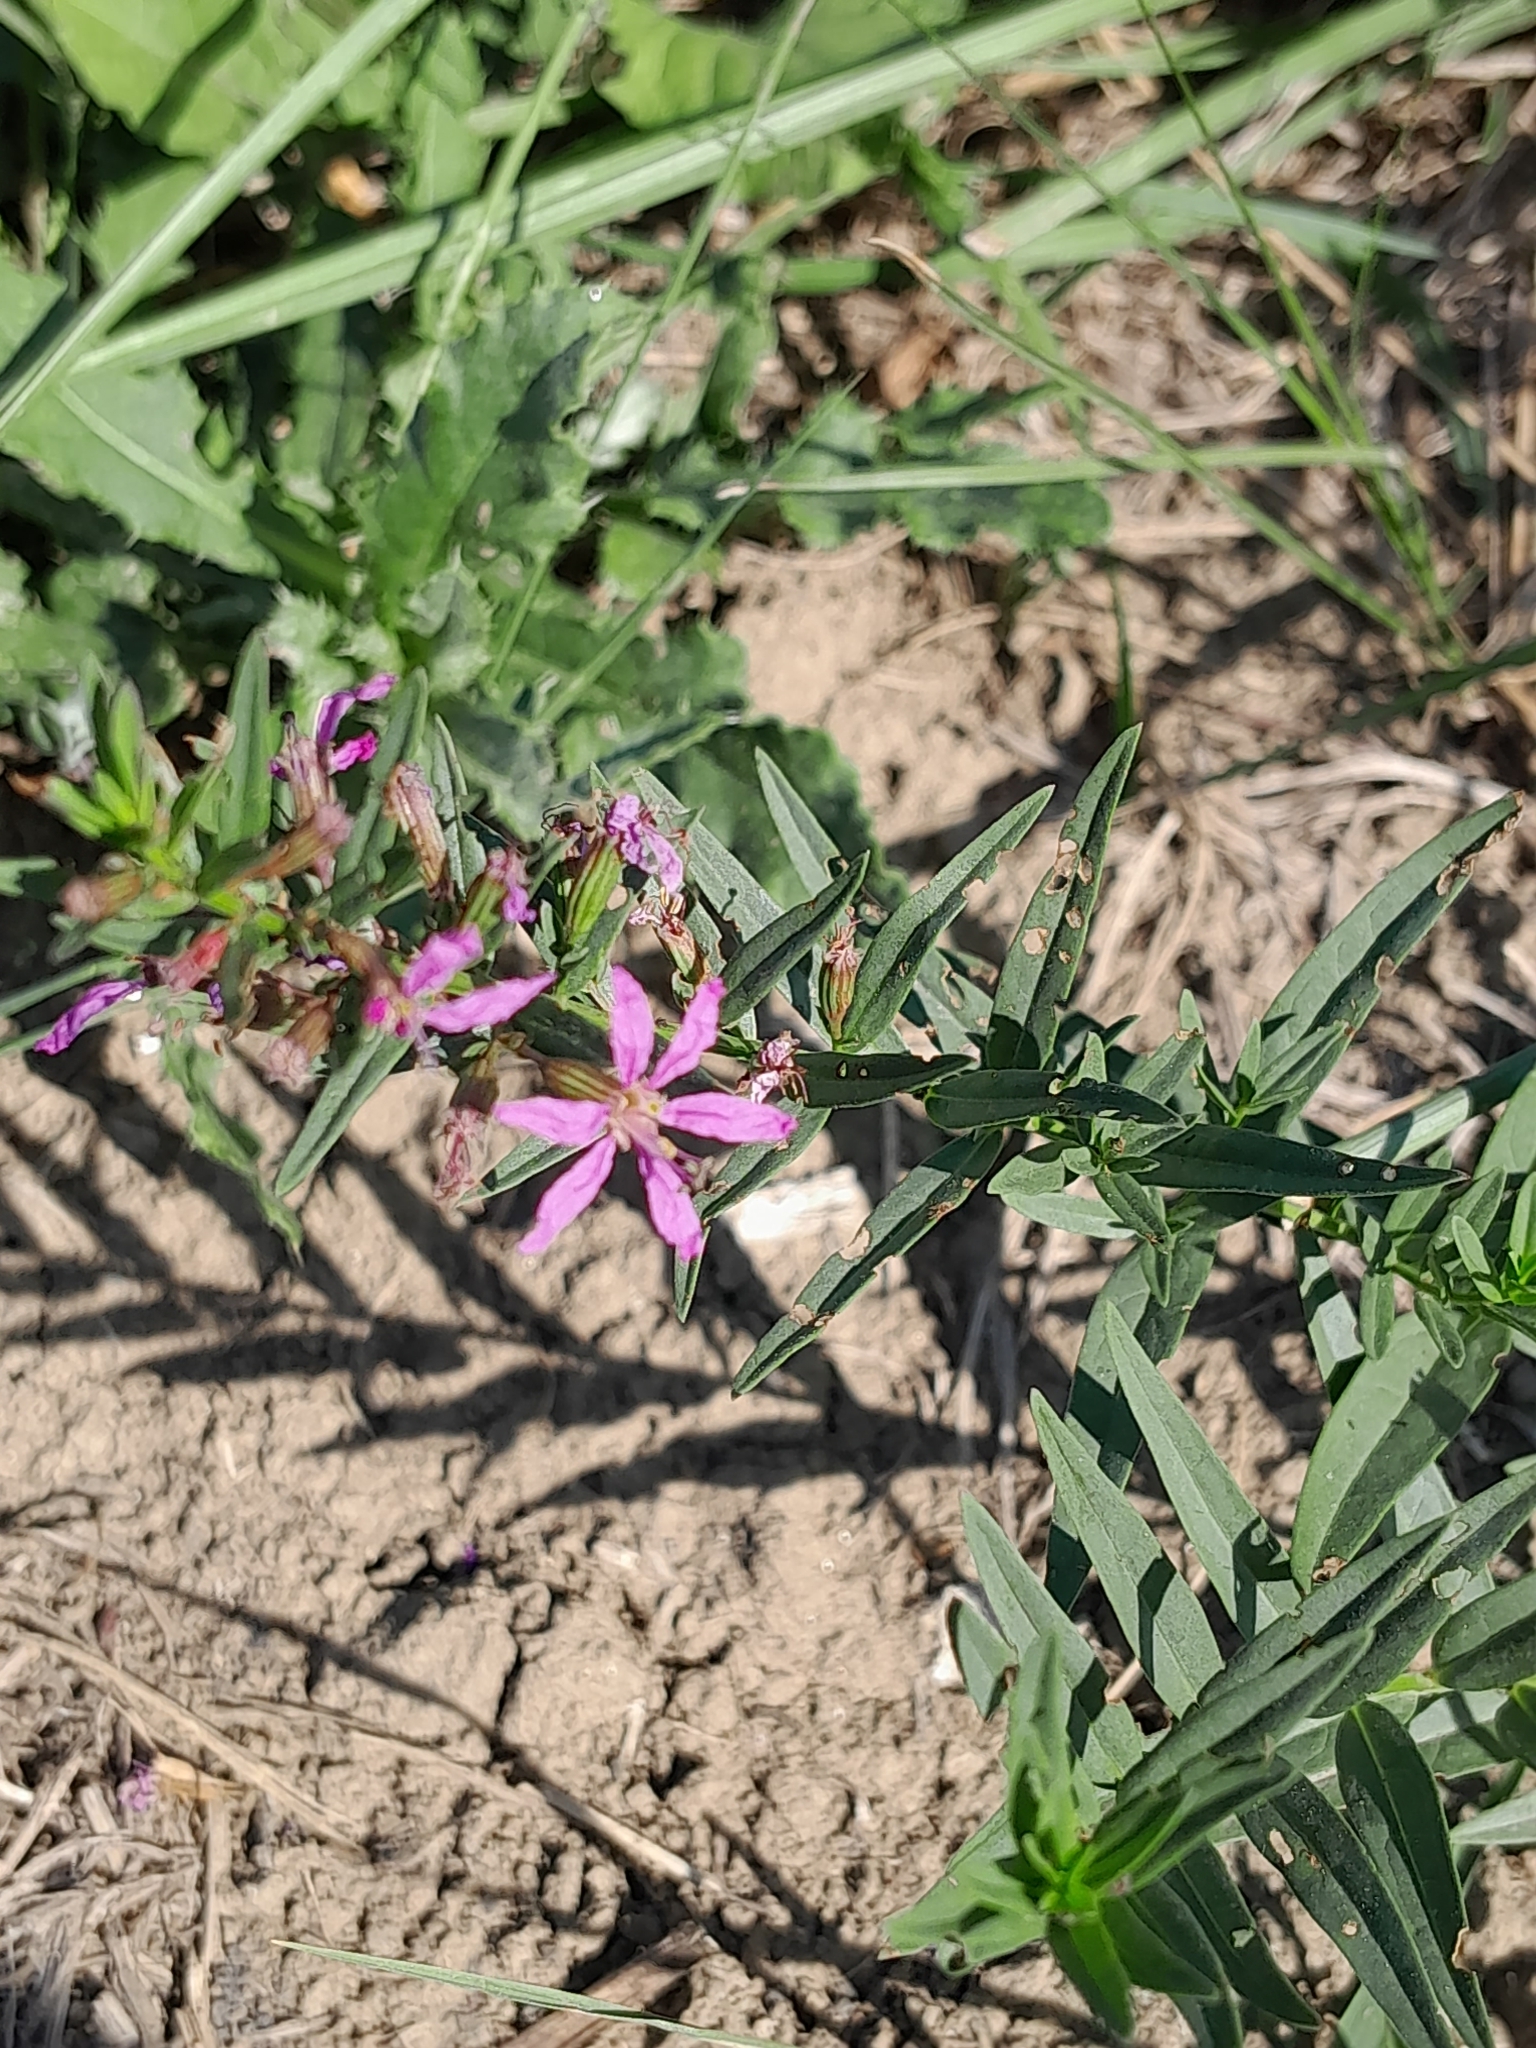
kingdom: Plantae
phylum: Tracheophyta
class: Magnoliopsida
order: Myrtales
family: Lythraceae
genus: Lythrum
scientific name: Lythrum virgatum
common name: European wand loosestrife
